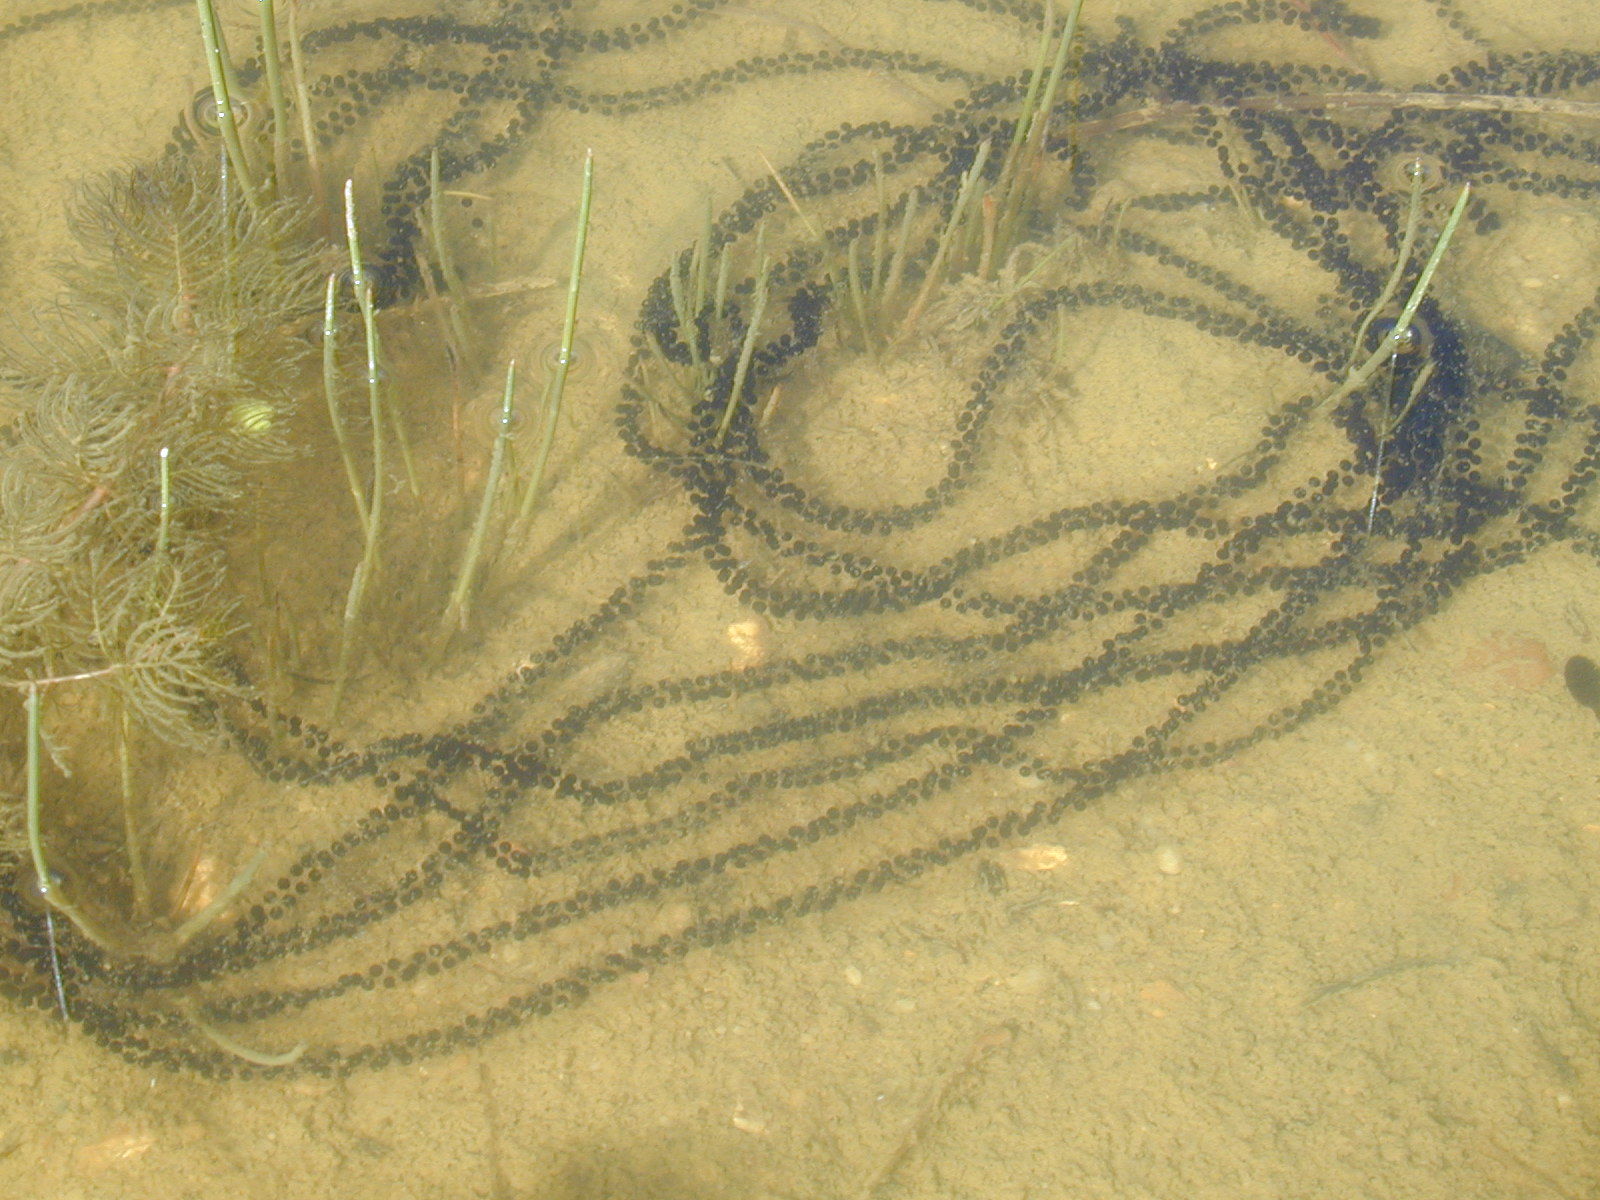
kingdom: Animalia
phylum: Chordata
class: Amphibia
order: Anura
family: Bufonidae
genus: Epidalea
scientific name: Epidalea calamita
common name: Natterjack toad
